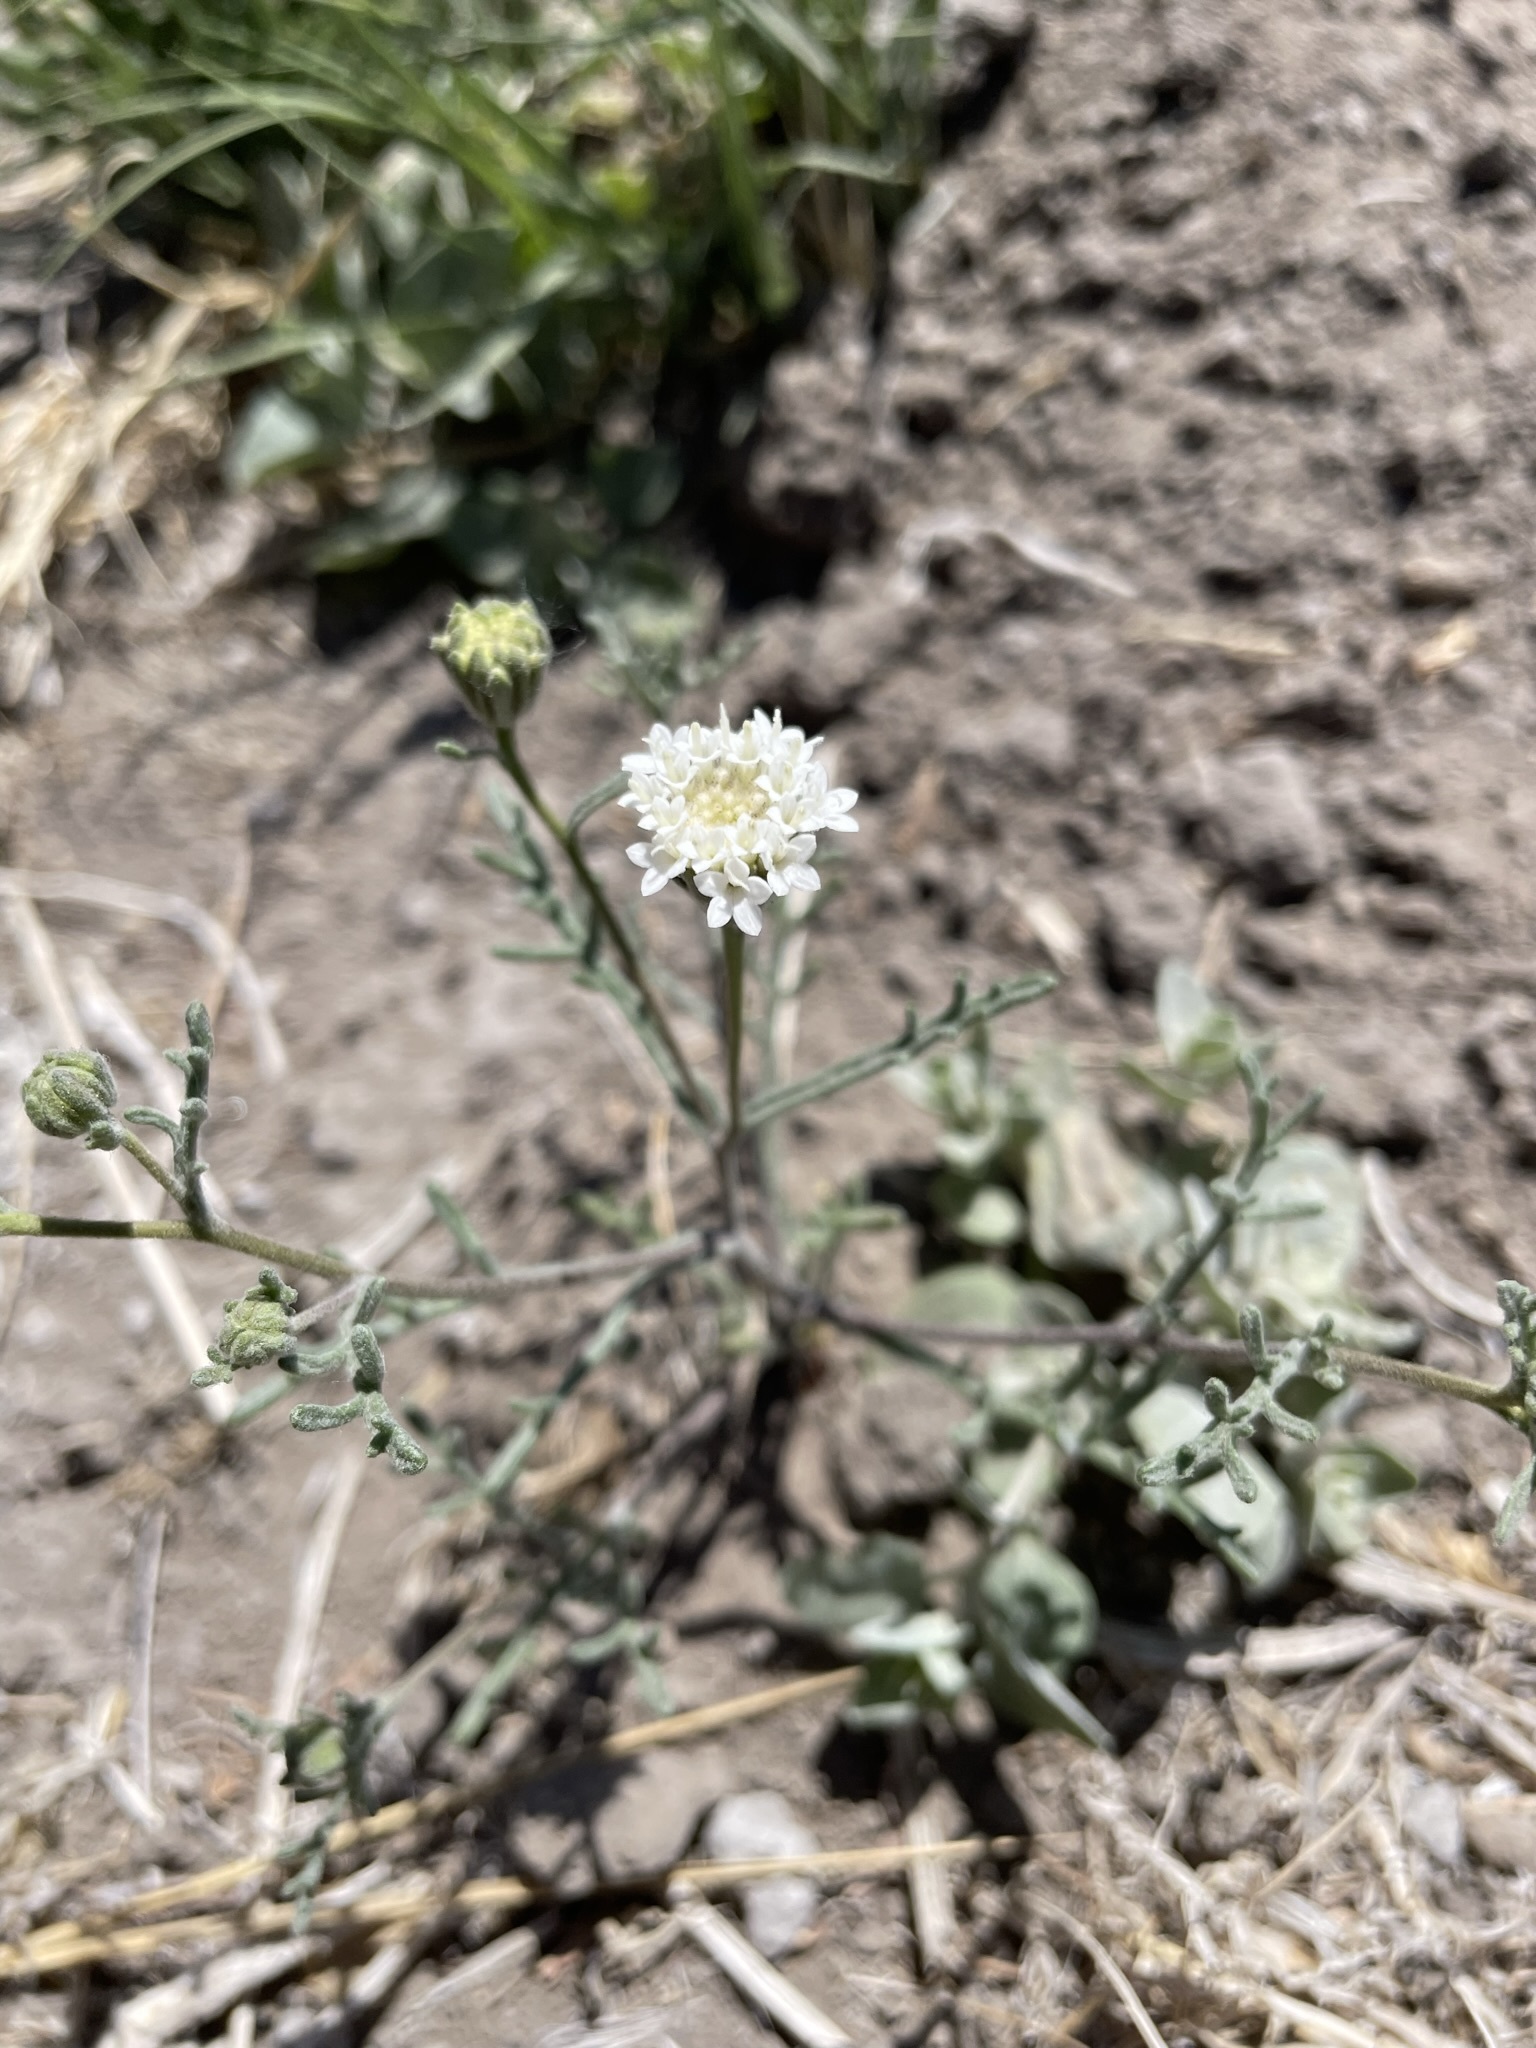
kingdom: Plantae
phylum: Tracheophyta
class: Magnoliopsida
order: Asterales
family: Asteraceae
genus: Chaenactis
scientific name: Chaenactis stevioides
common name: Desert pincushion
